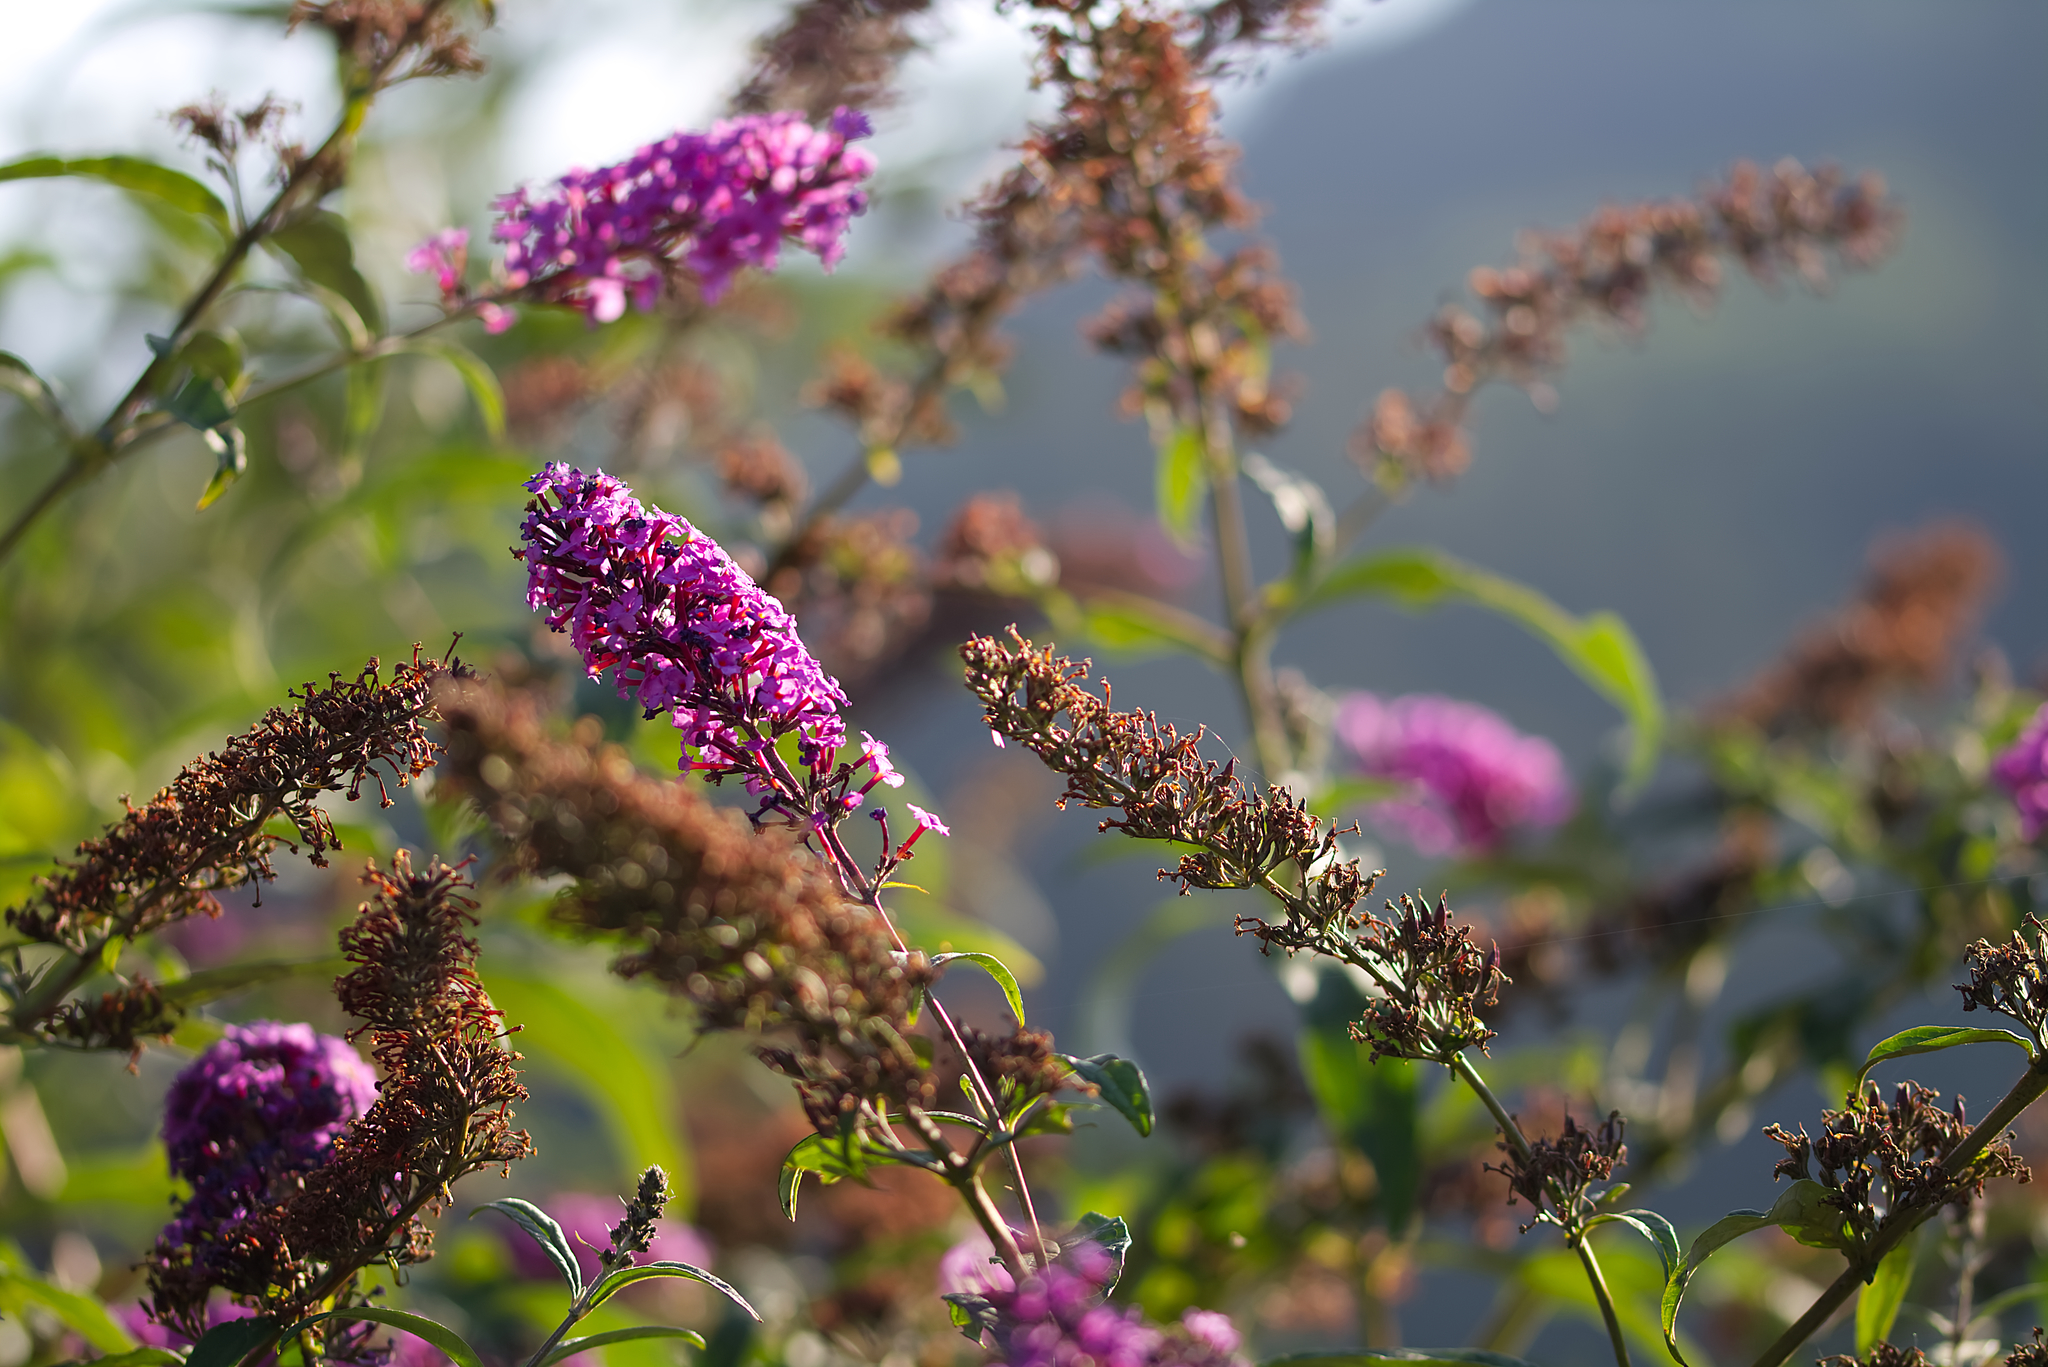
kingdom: Plantae
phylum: Tracheophyta
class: Magnoliopsida
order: Lamiales
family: Scrophulariaceae
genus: Buddleja
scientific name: Buddleja davidii
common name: Butterfly-bush
